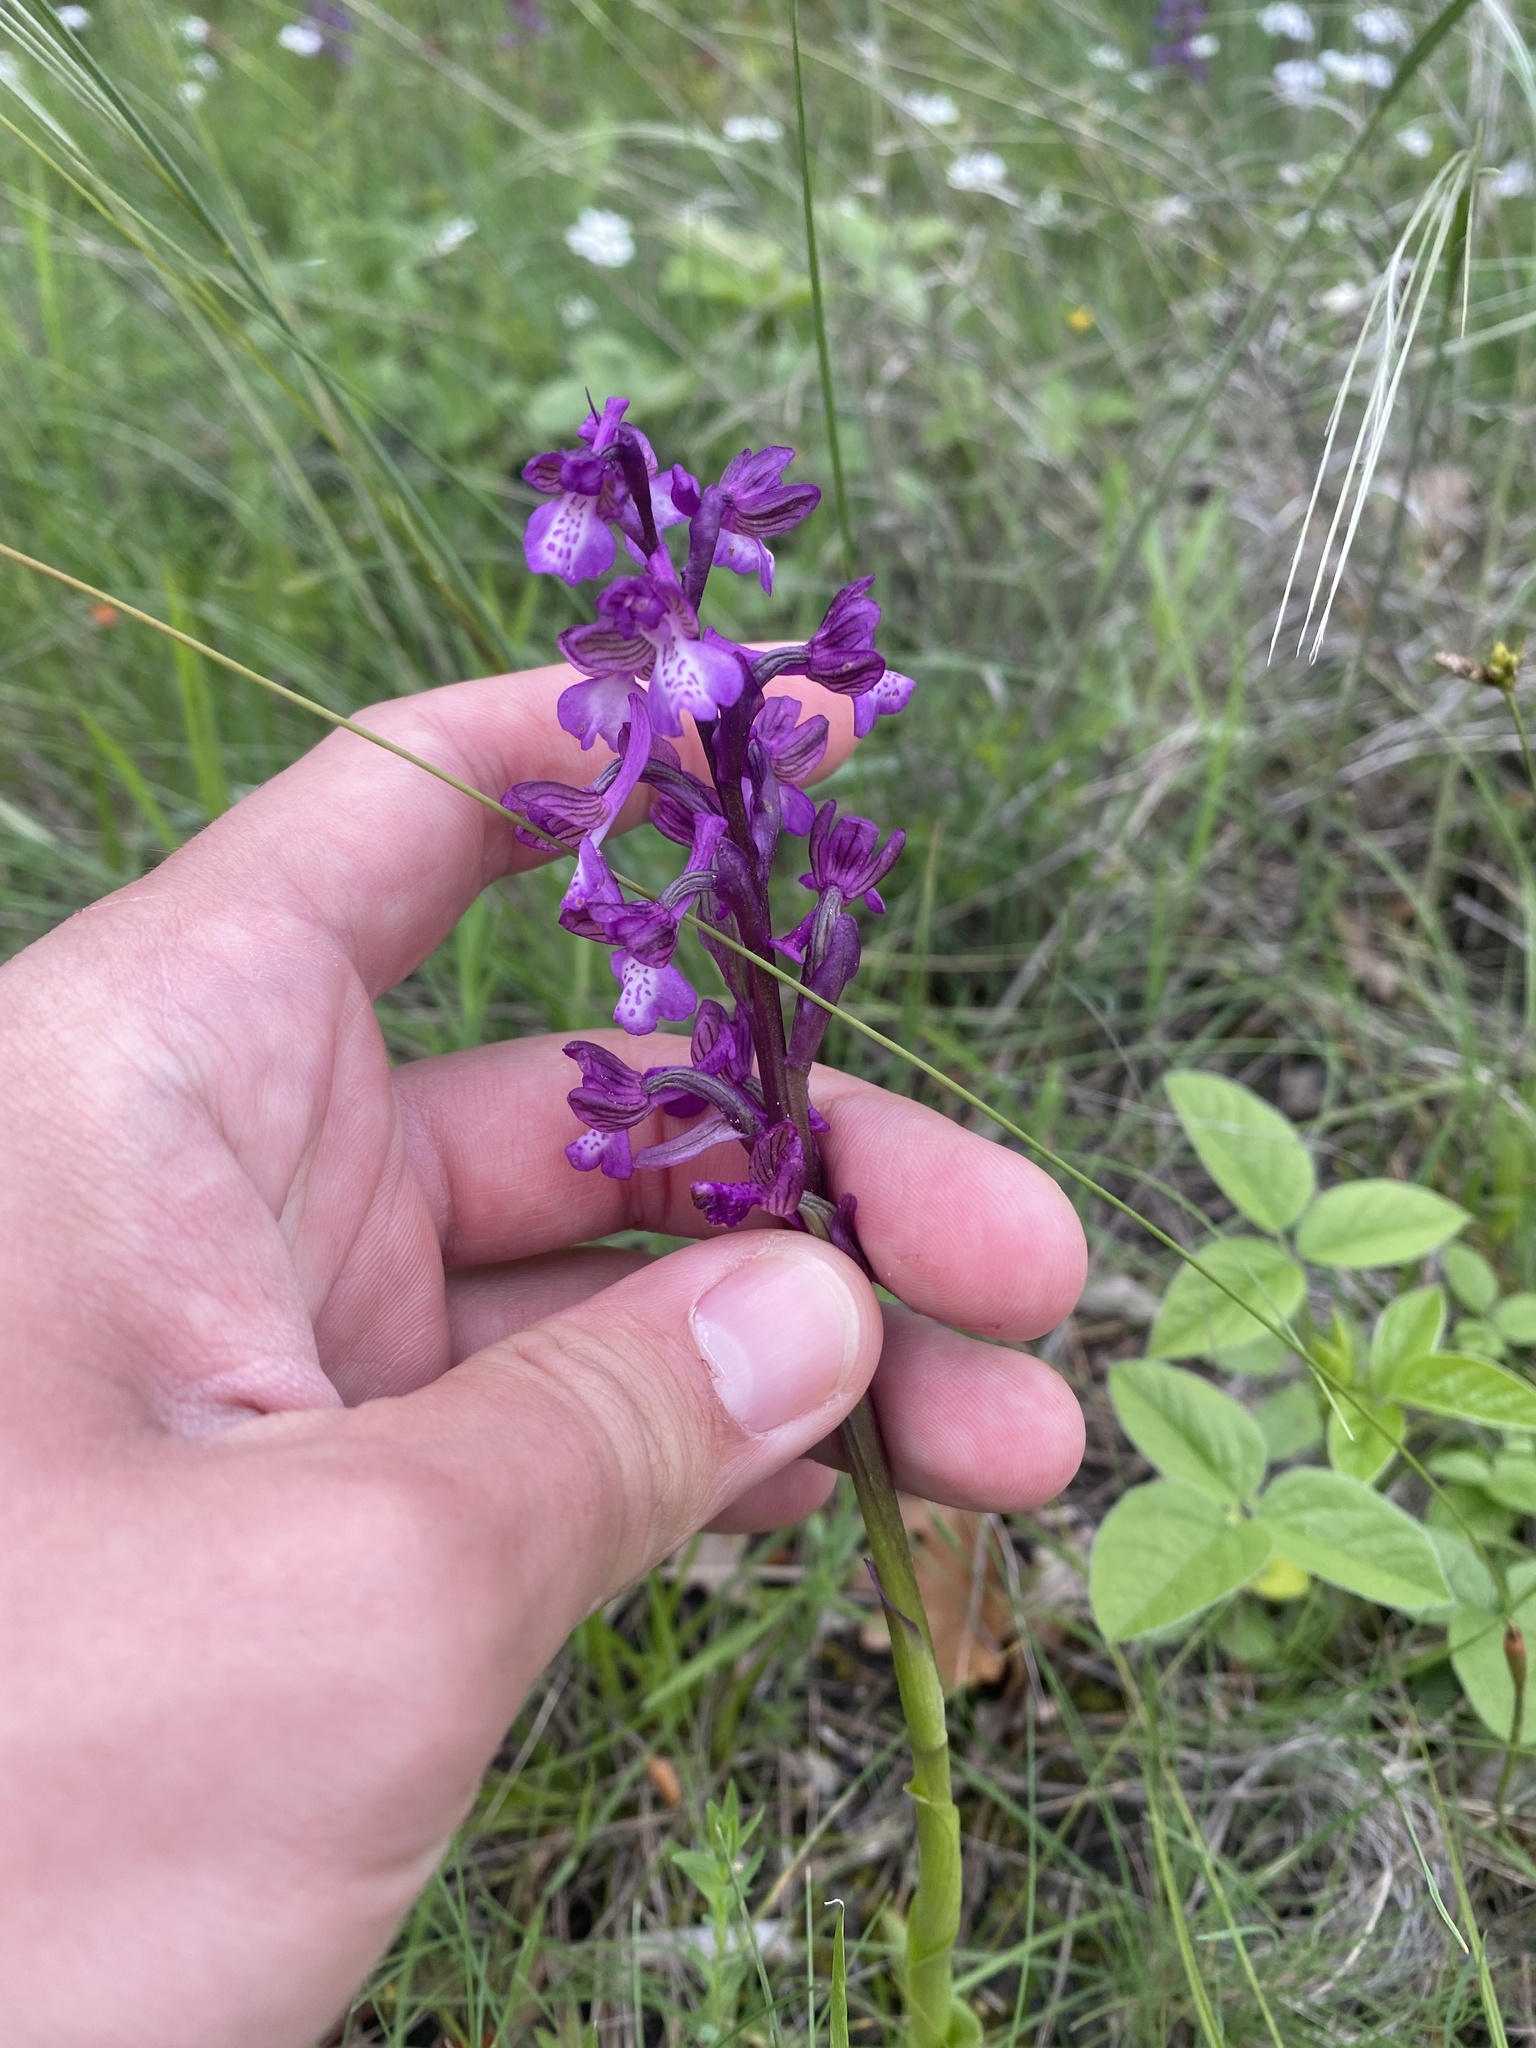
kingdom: Plantae
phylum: Tracheophyta
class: Liliopsida
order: Asparagales
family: Orchidaceae
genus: Anacamptis
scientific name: Anacamptis morio
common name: Green-winged orchid
